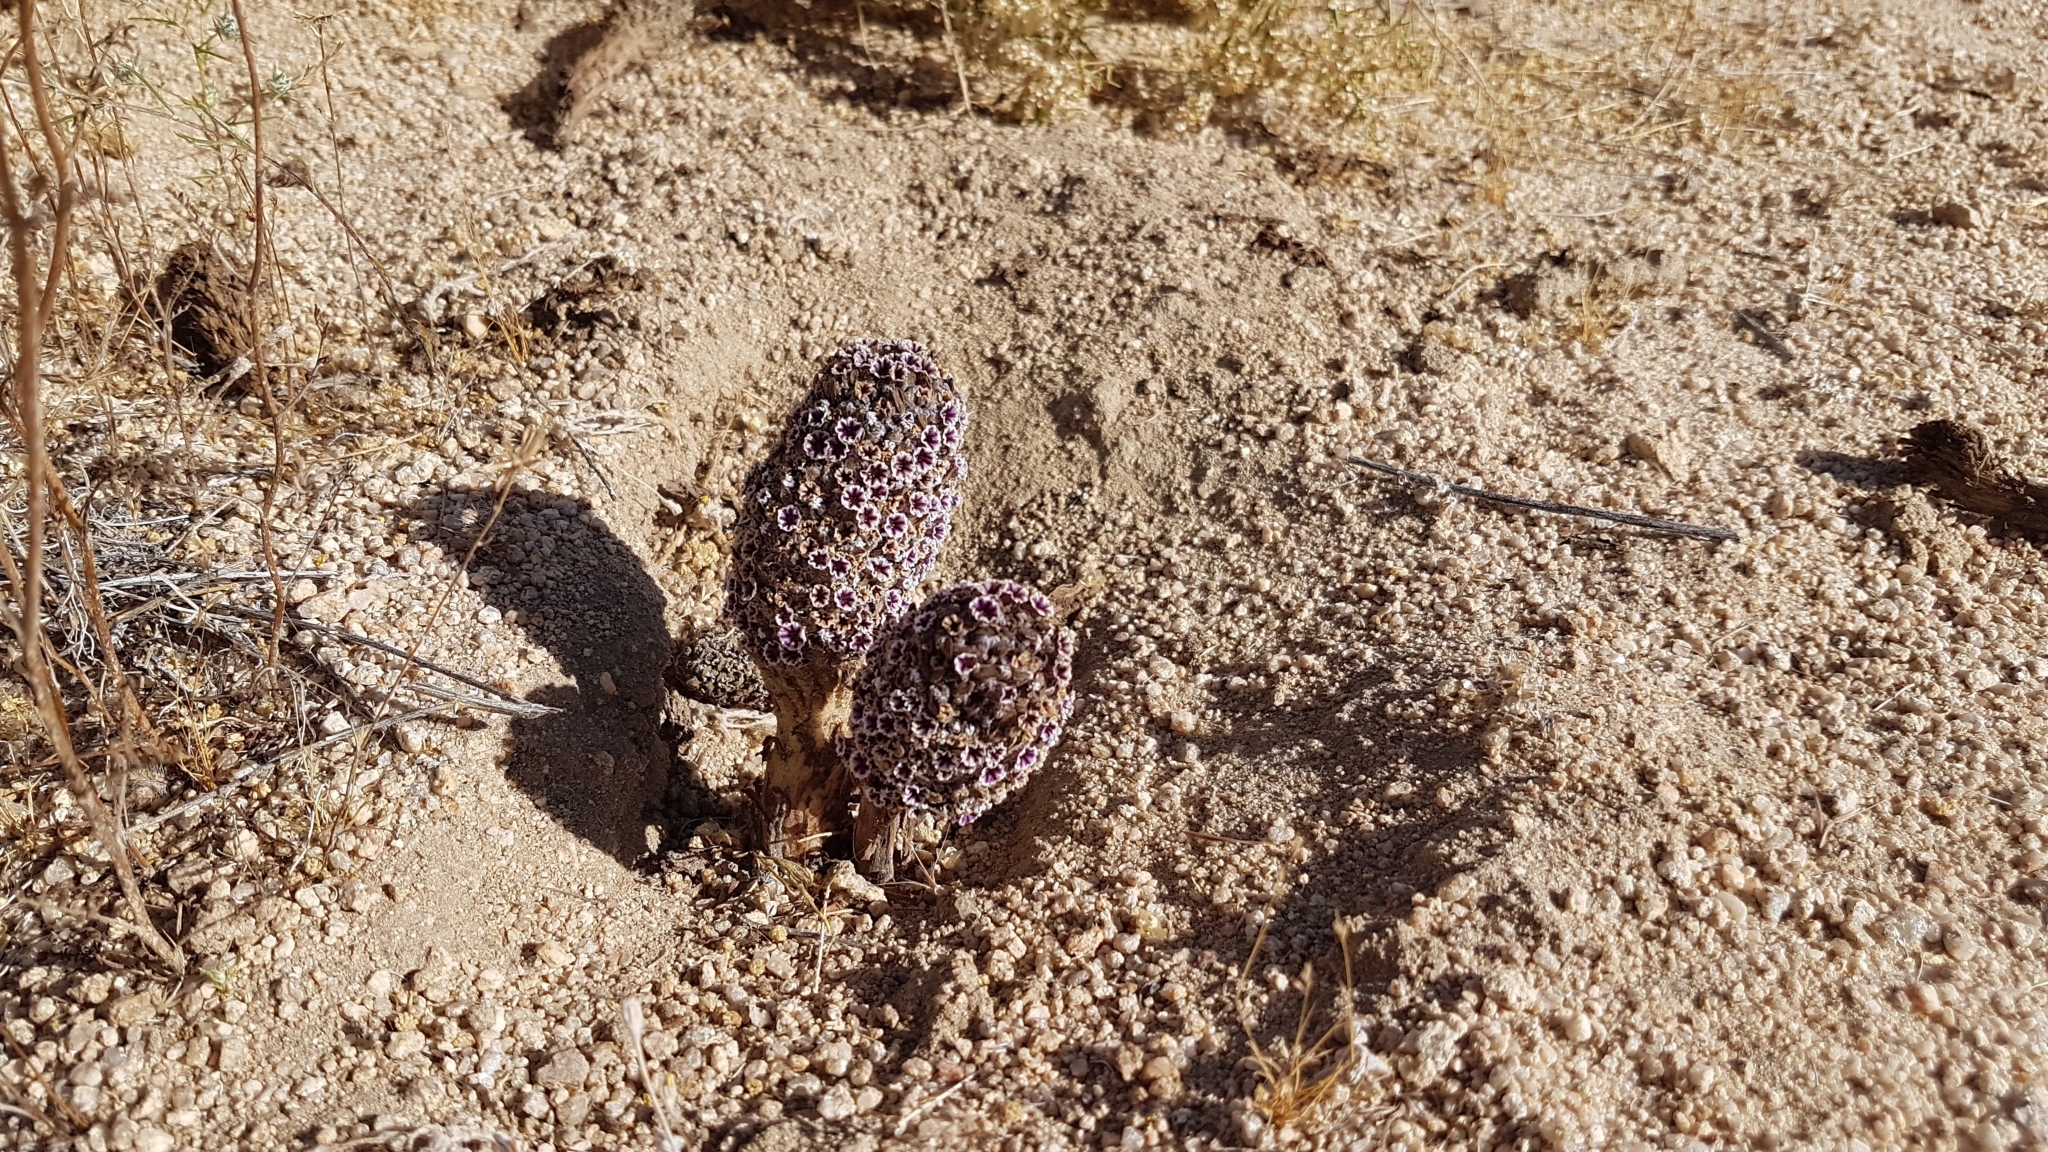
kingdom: Plantae
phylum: Tracheophyta
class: Magnoliopsida
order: Boraginales
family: Lennoaceae
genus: Pholisma
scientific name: Pholisma arenarium
